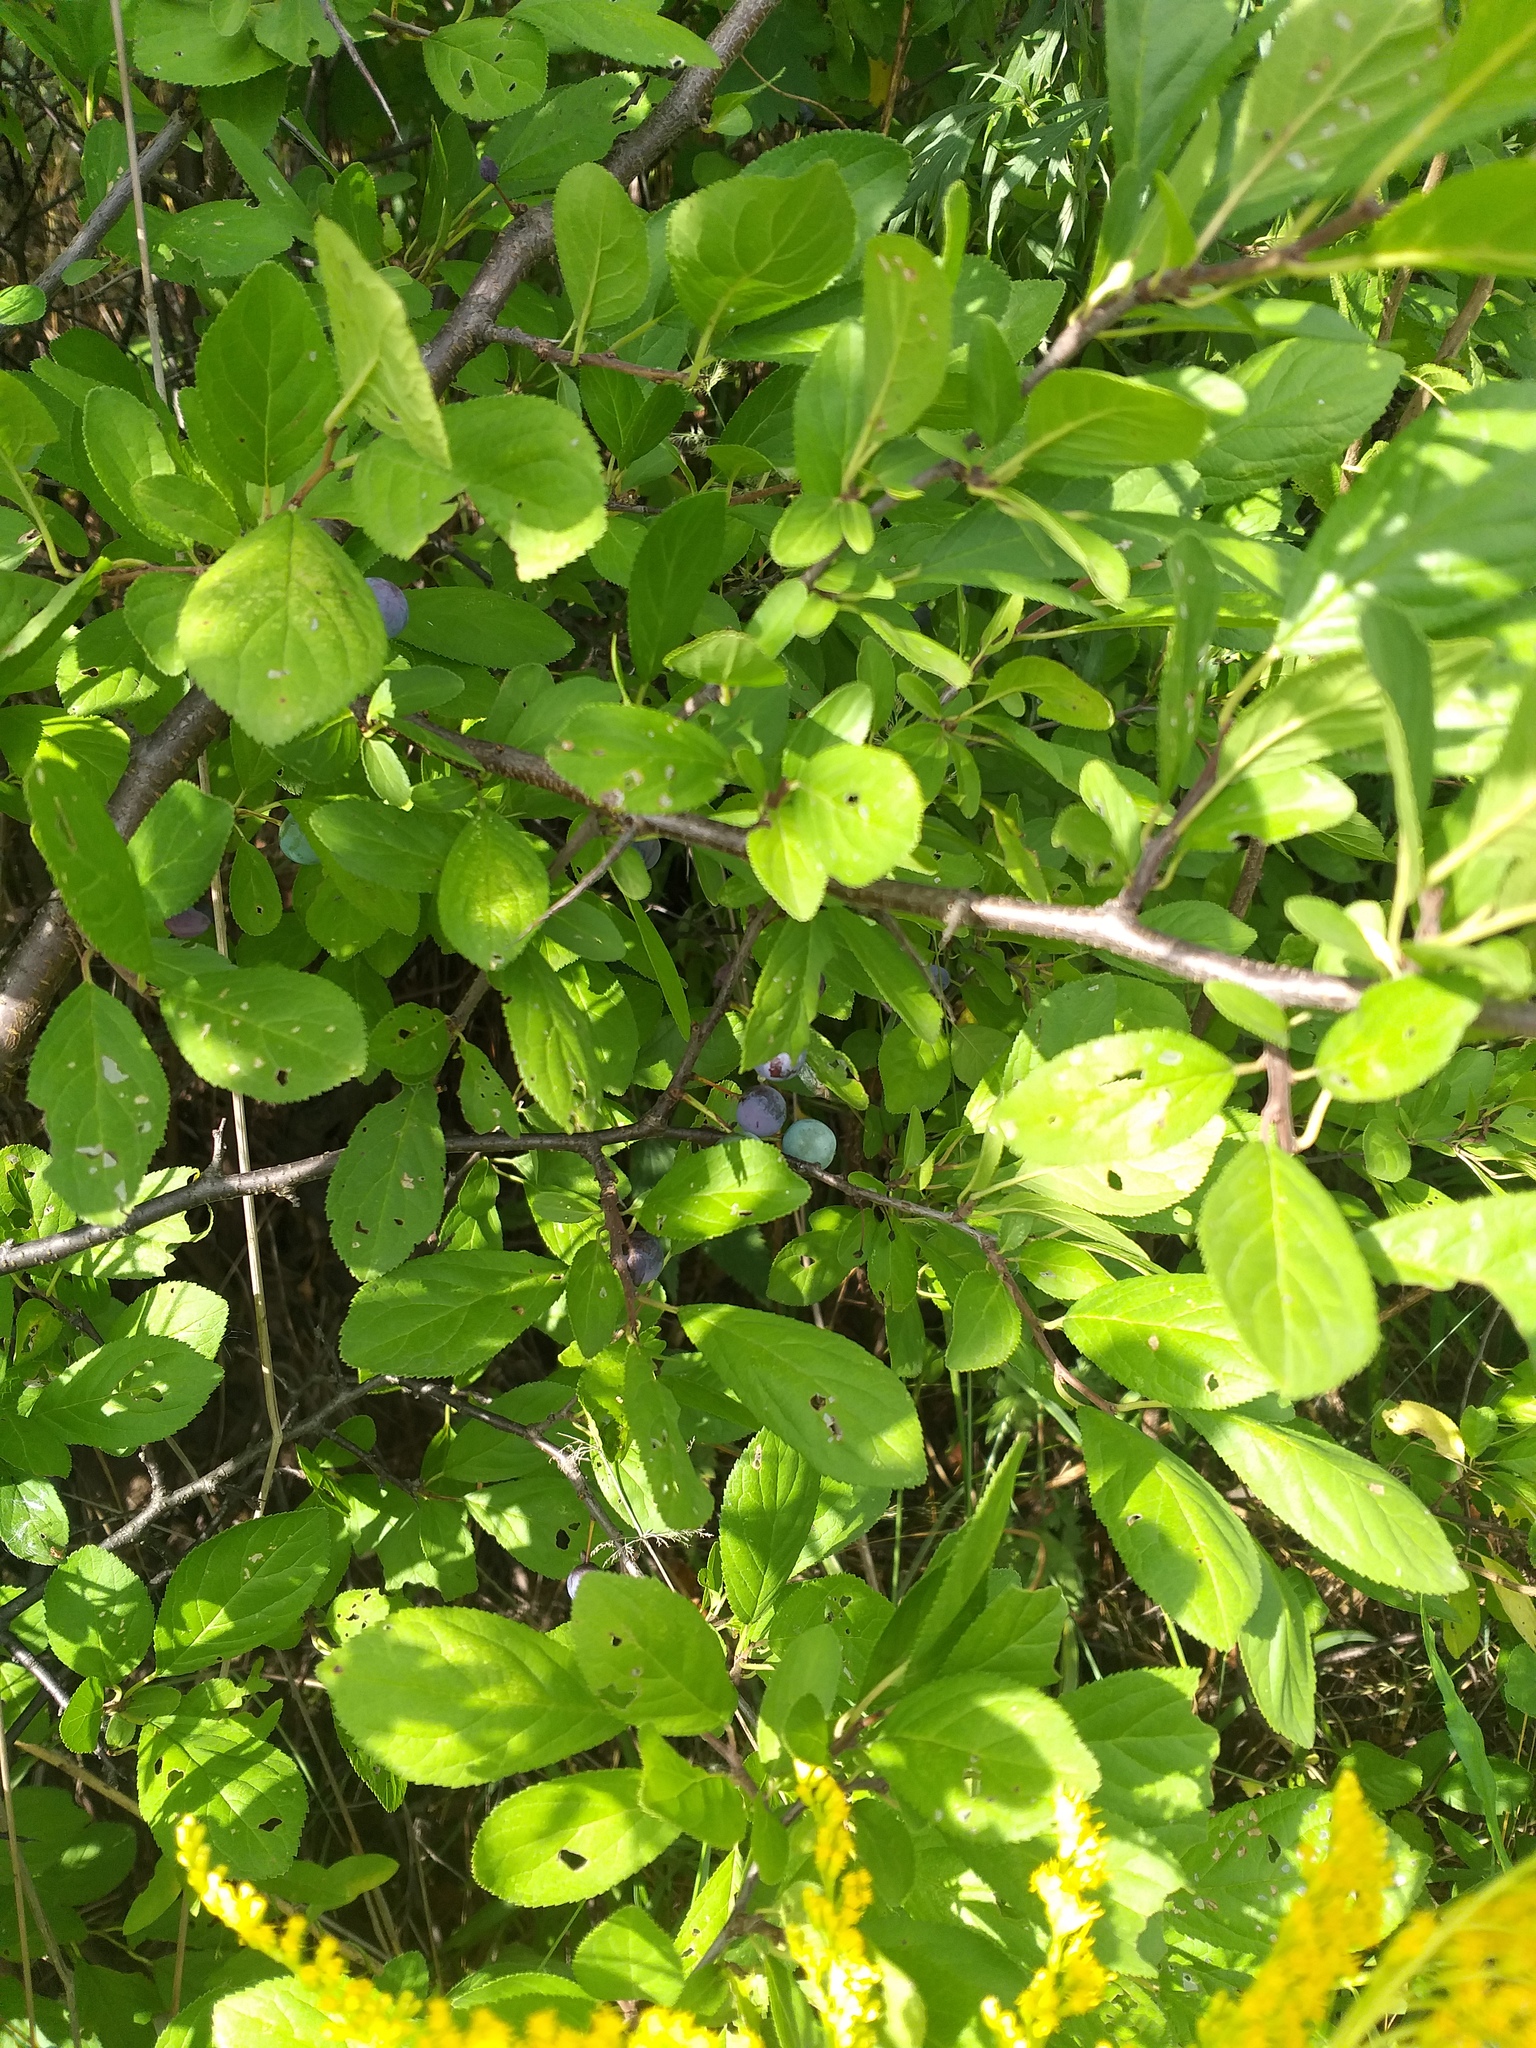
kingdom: Plantae
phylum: Tracheophyta
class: Magnoliopsida
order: Rosales
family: Rosaceae
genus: Prunus
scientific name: Prunus spinosa
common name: Blackthorn
